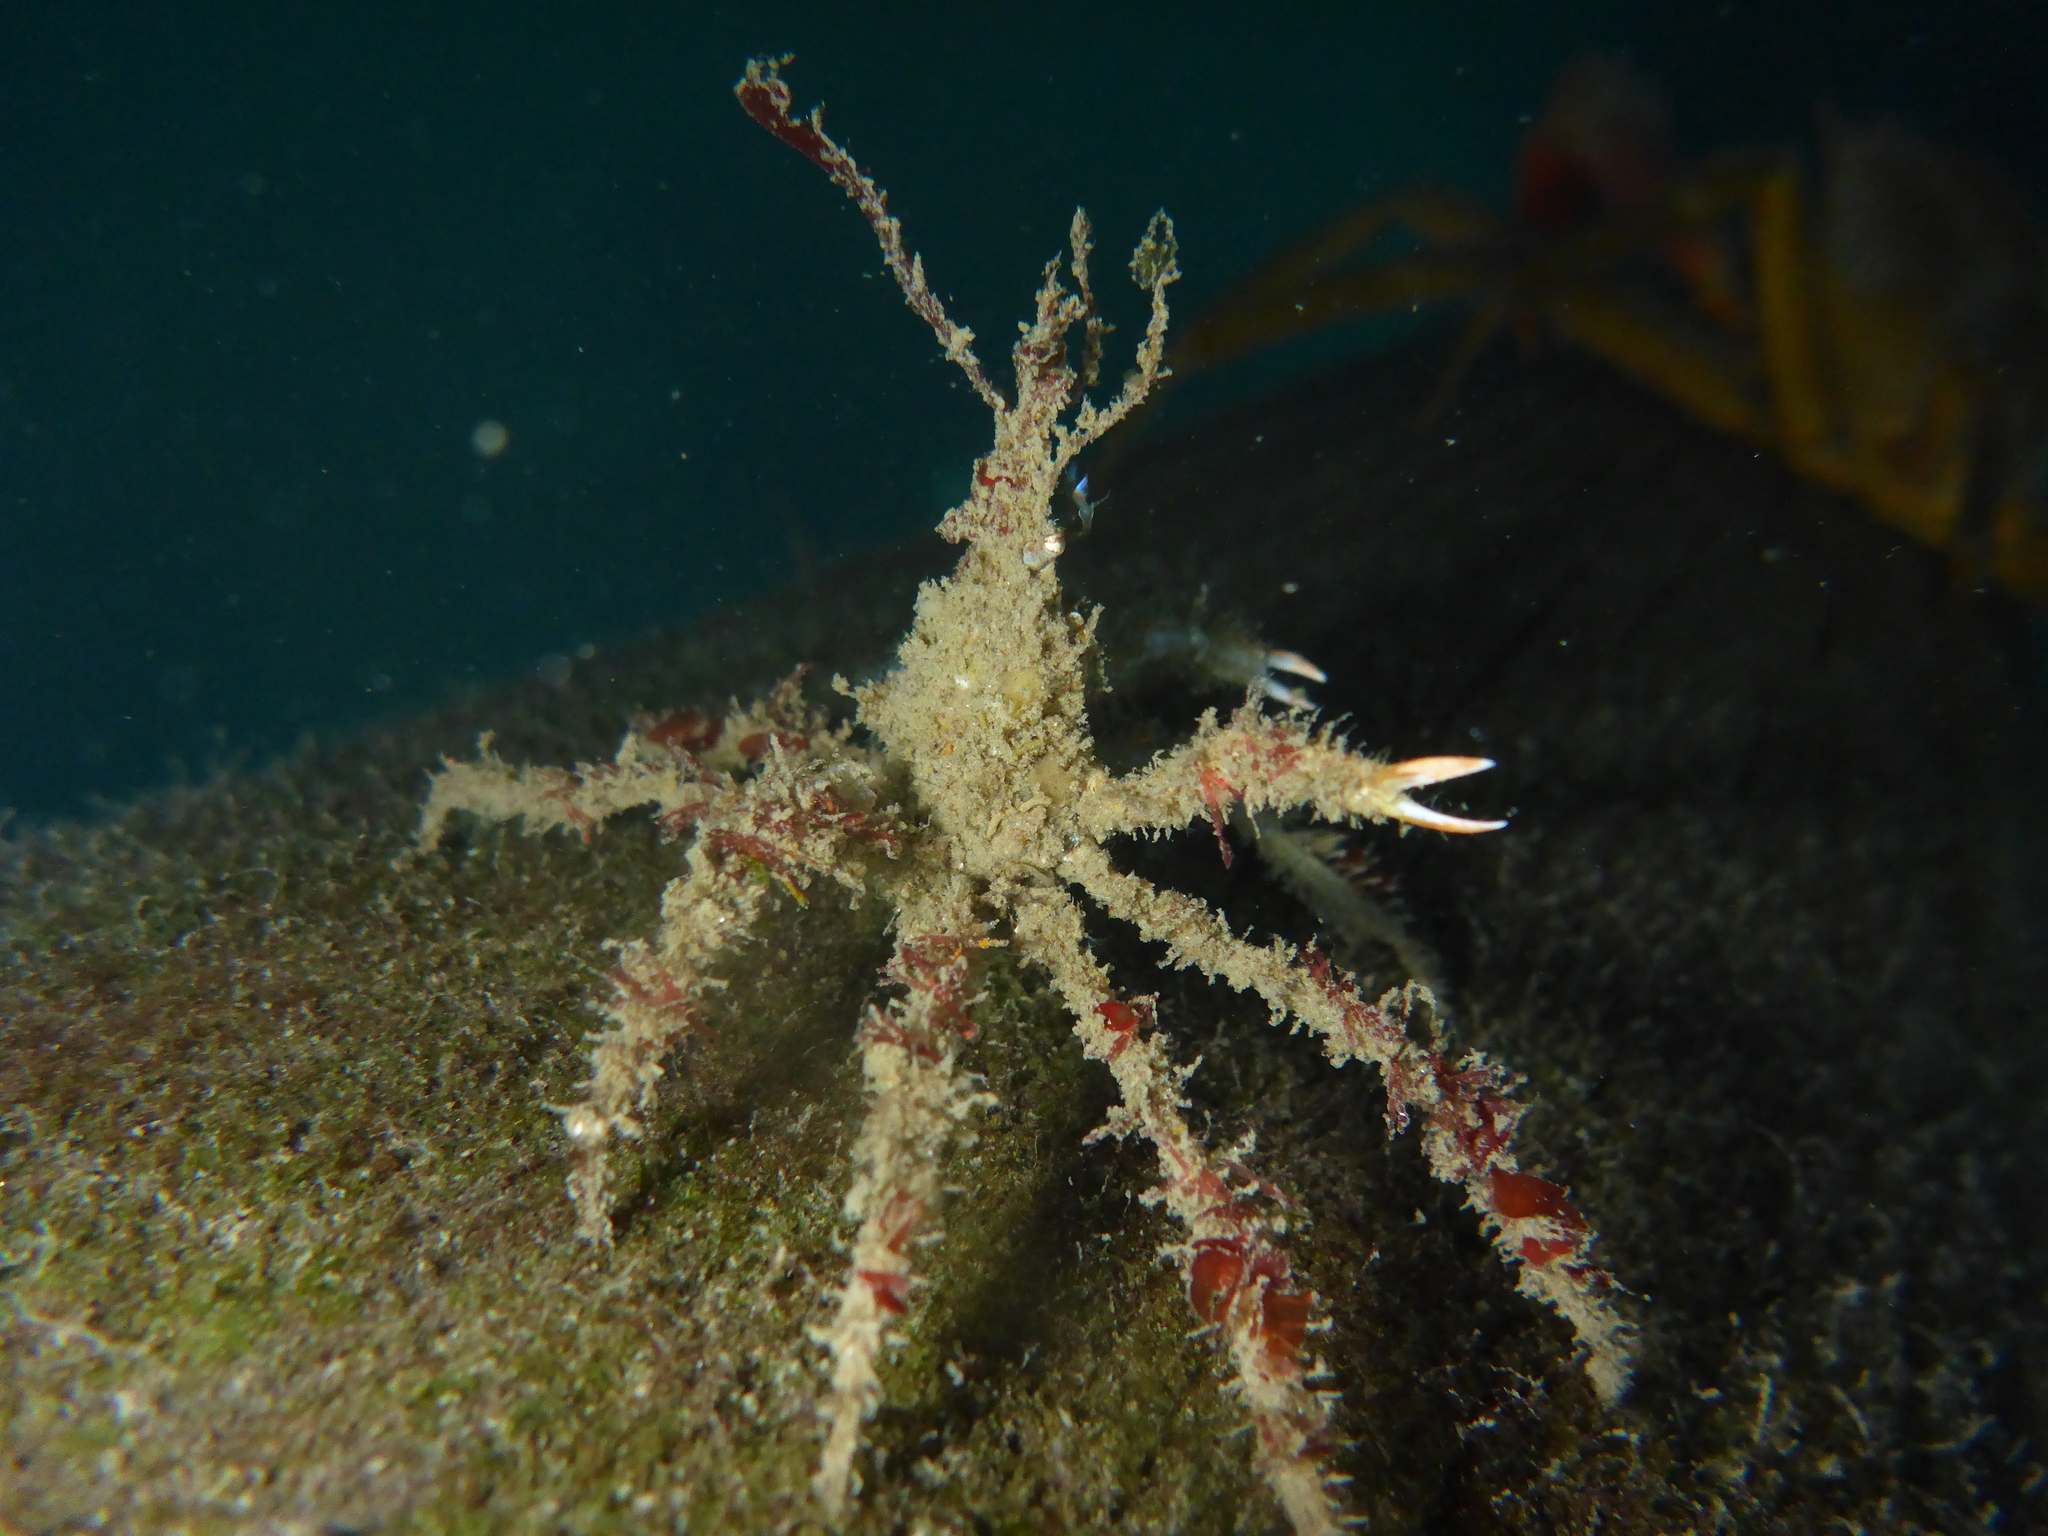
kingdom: Animalia
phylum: Arthropoda
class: Malacostraca
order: Decapoda
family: Oregoniidae
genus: Oregonia
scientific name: Oregonia gracilis
